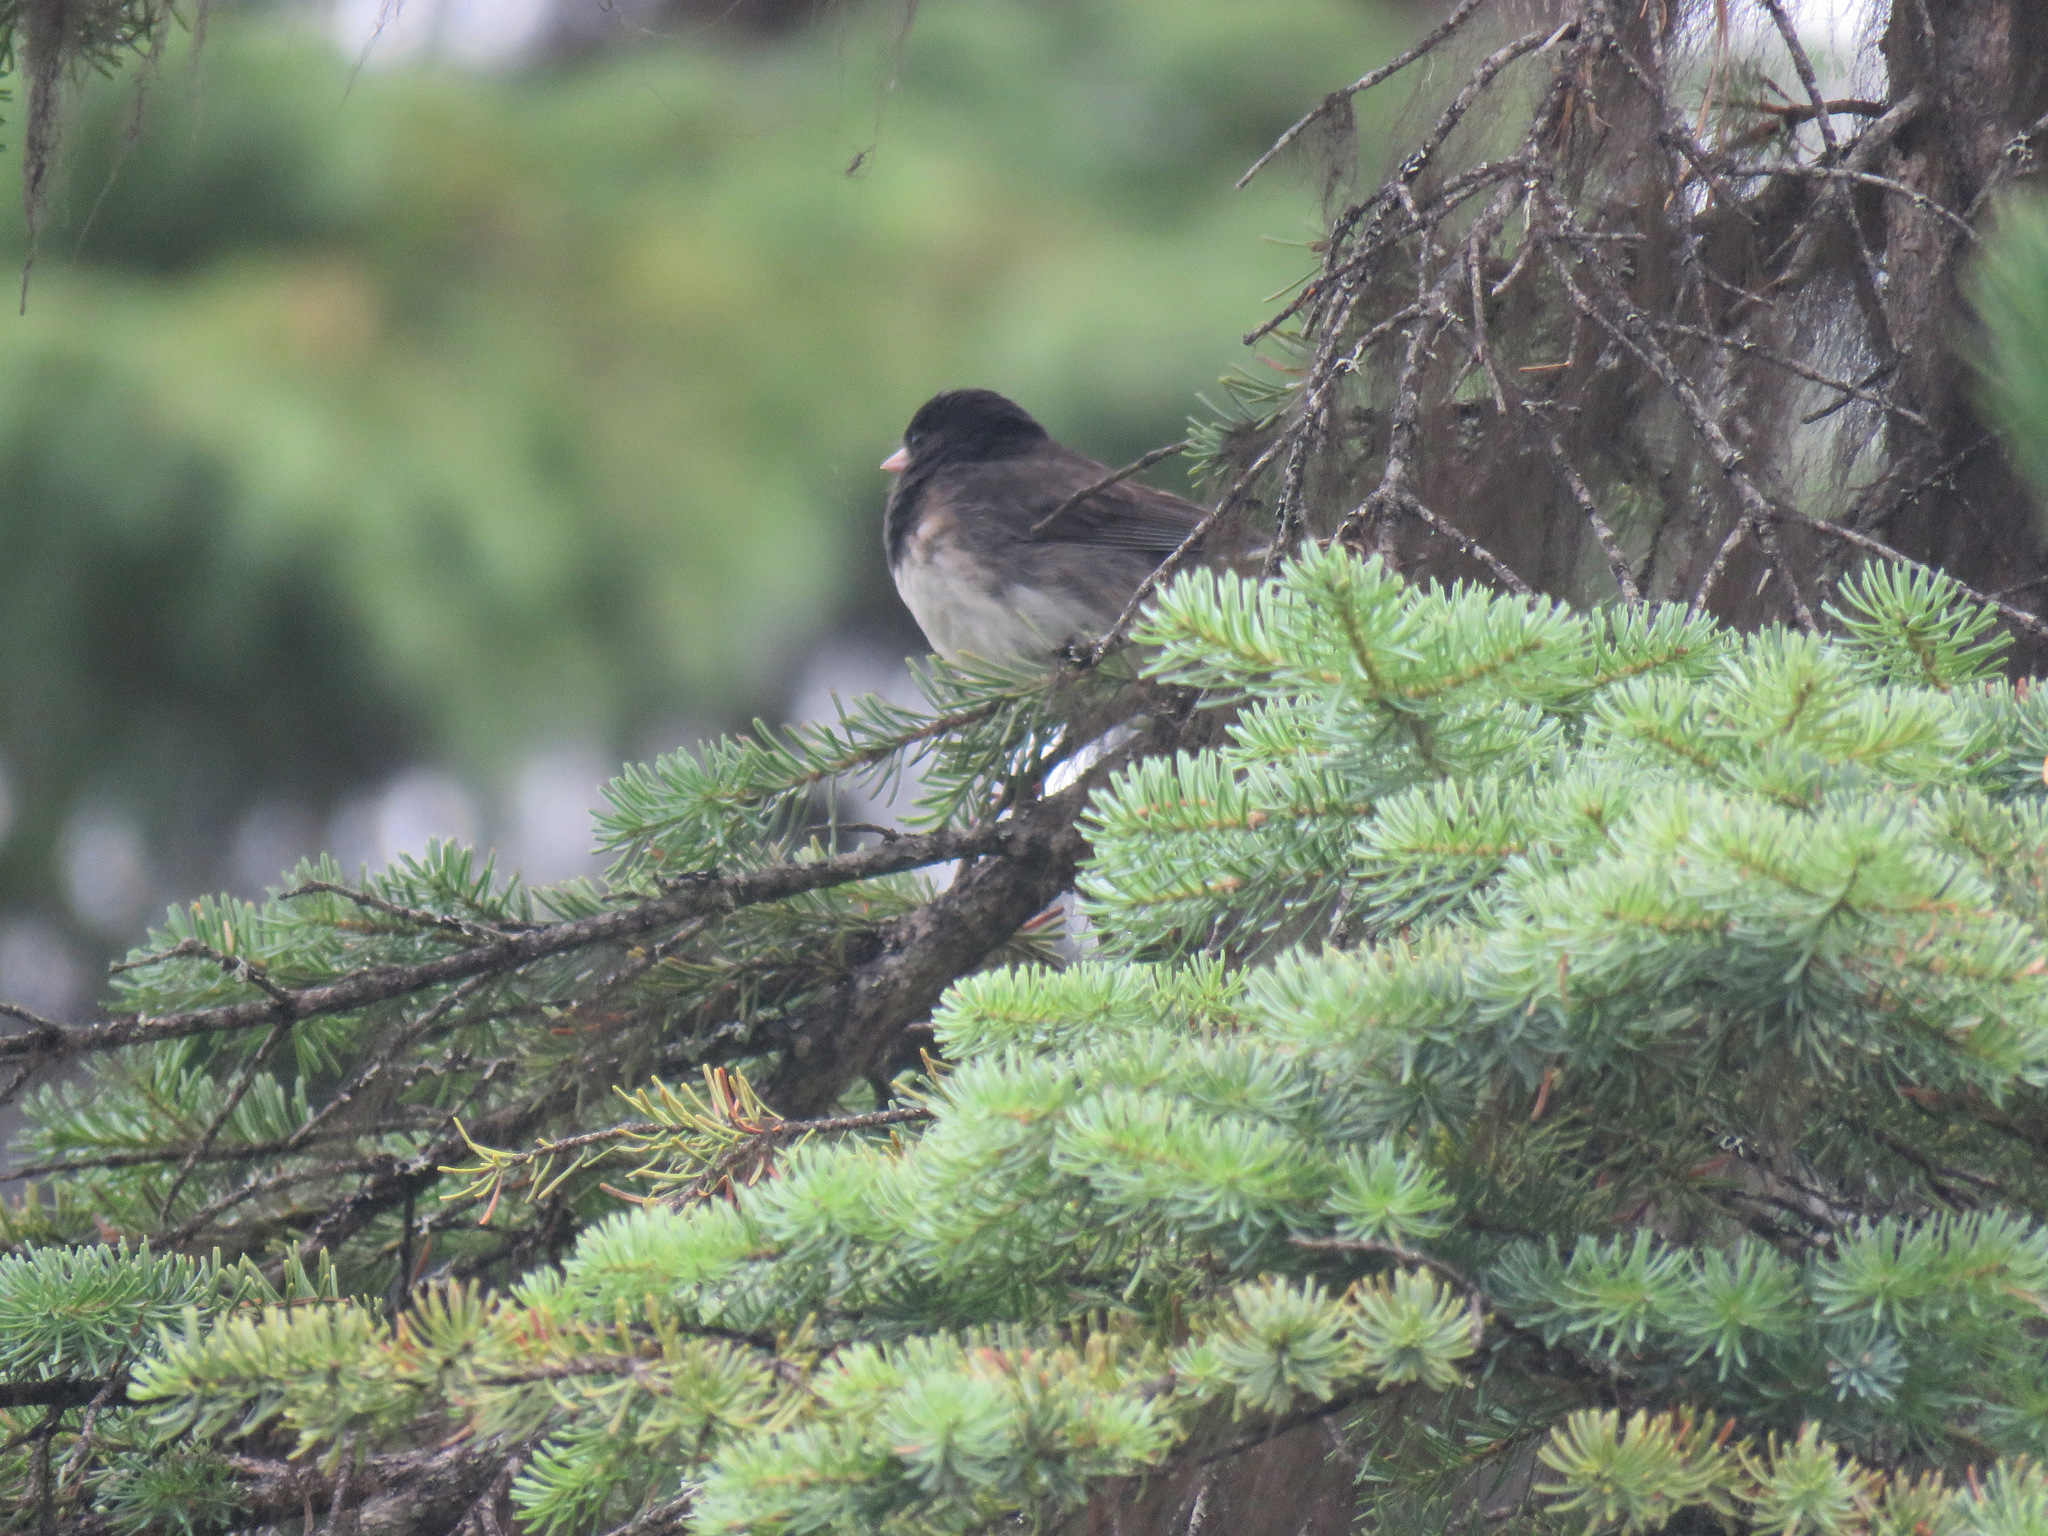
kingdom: Animalia
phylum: Chordata
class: Aves
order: Passeriformes
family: Passerellidae
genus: Junco
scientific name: Junco hyemalis
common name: Dark-eyed junco
